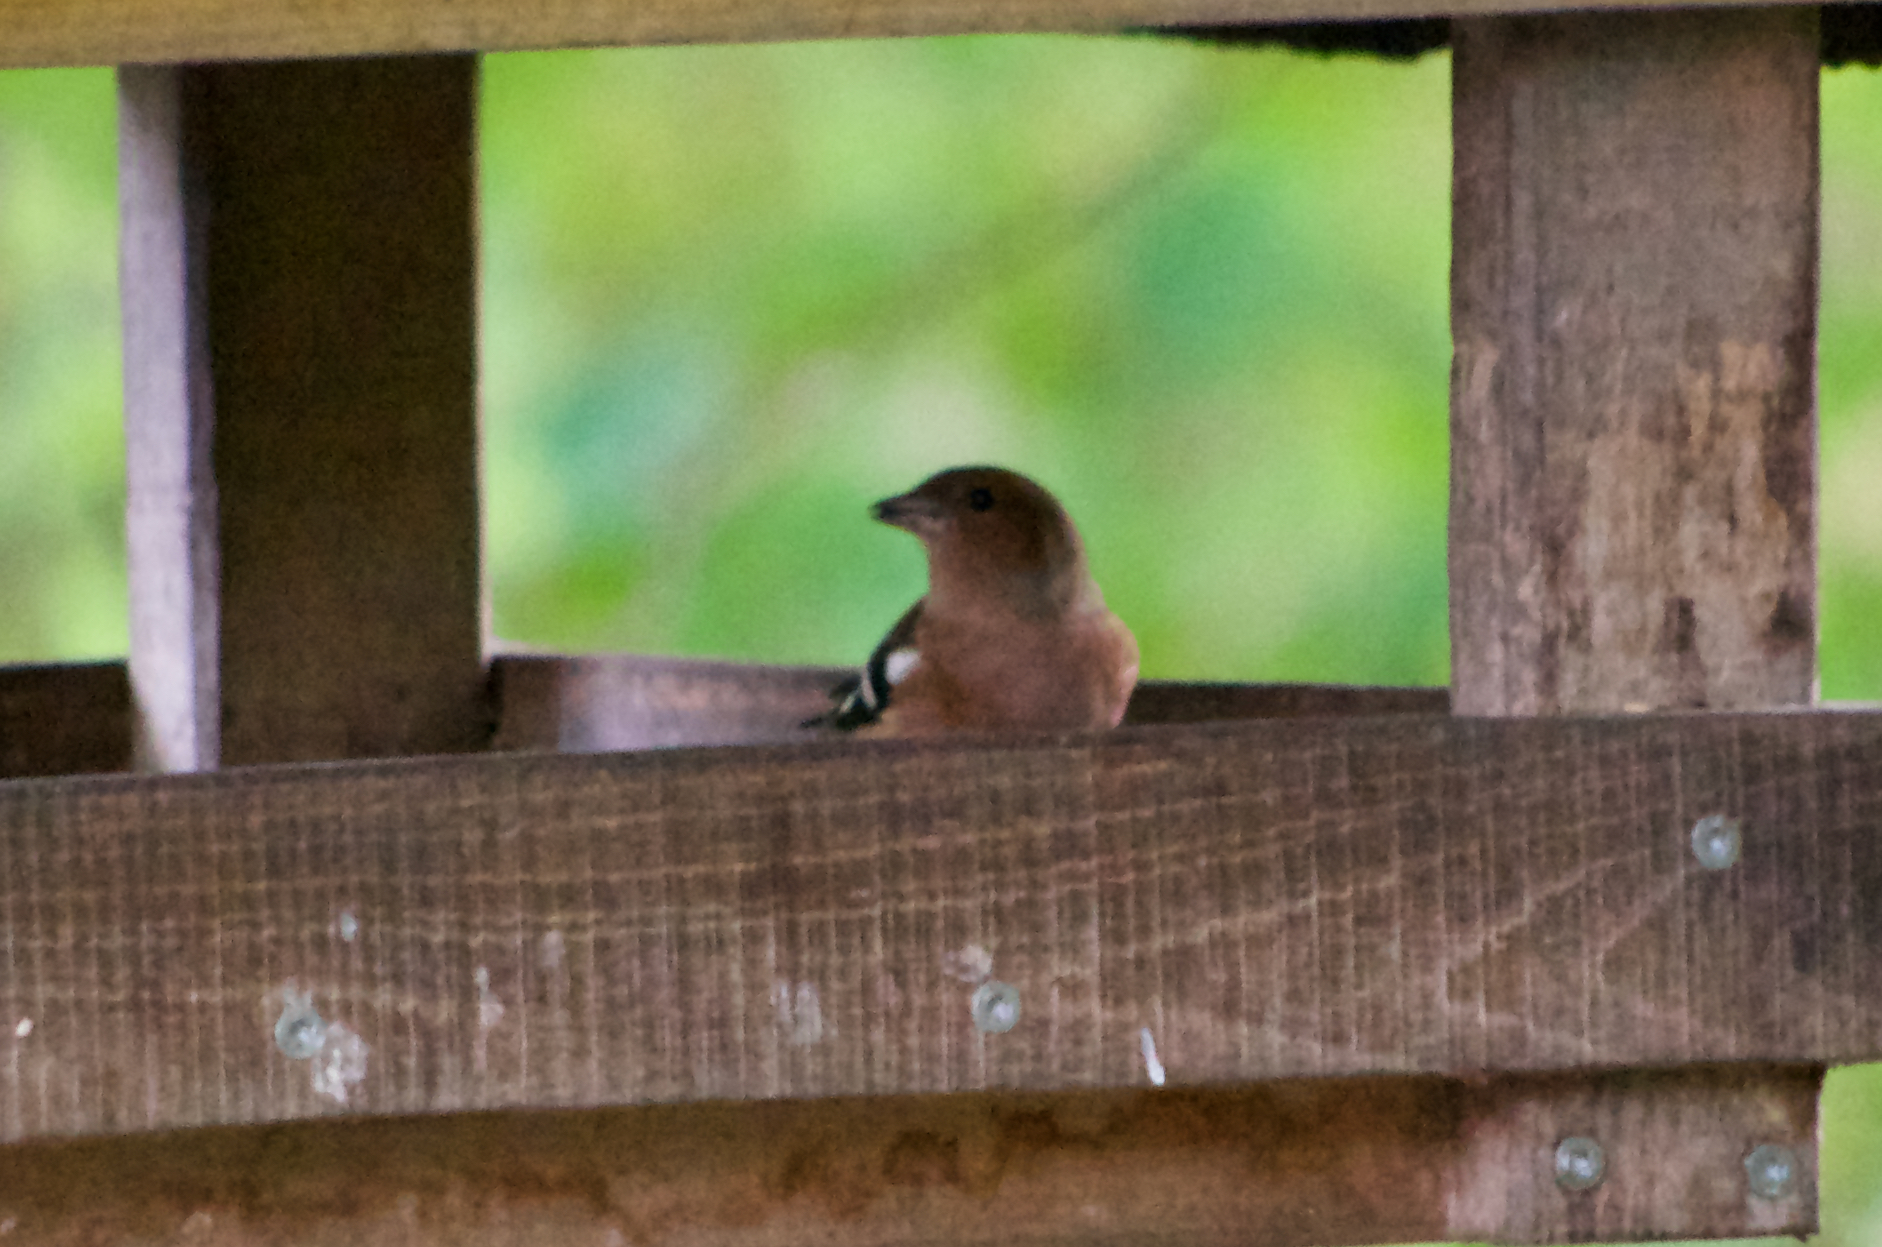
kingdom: Animalia
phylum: Chordata
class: Aves
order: Passeriformes
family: Fringillidae
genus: Fringilla
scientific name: Fringilla coelebs
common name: Common chaffinch
